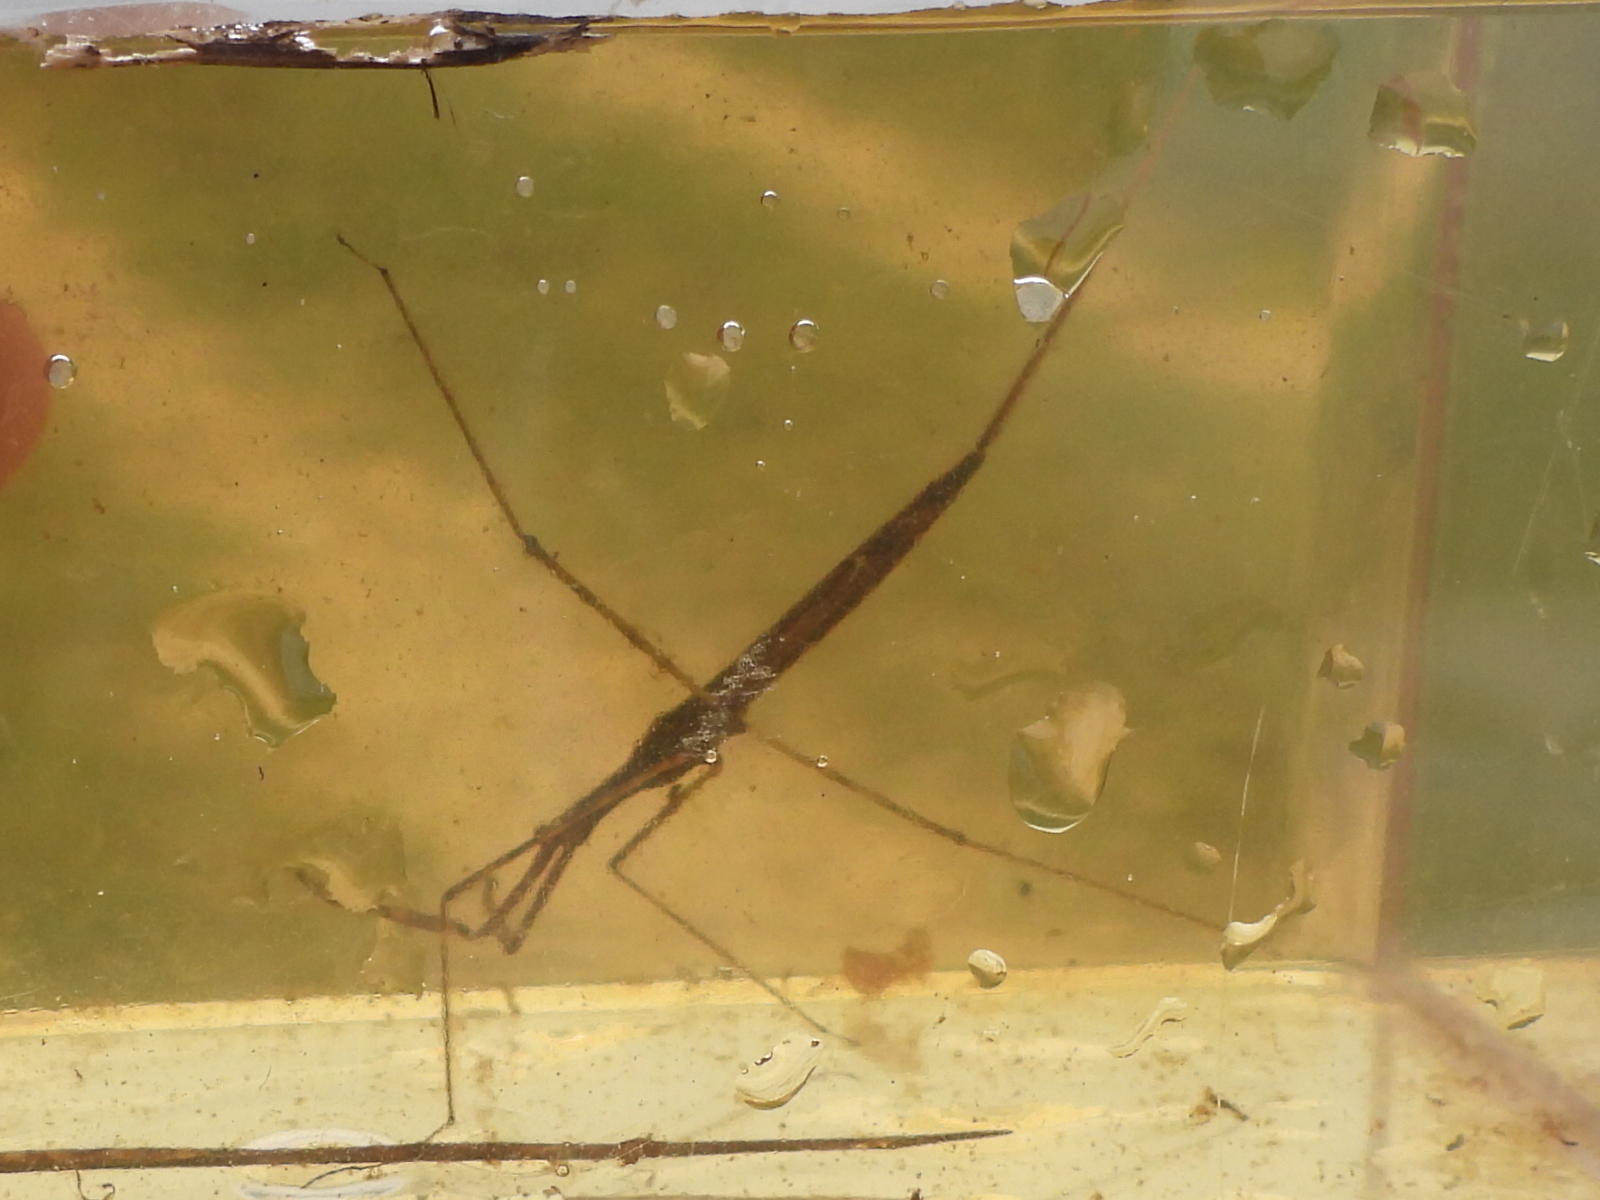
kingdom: Animalia
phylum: Arthropoda
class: Insecta
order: Hemiptera
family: Nepidae
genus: Ranatra
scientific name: Ranatra australis
